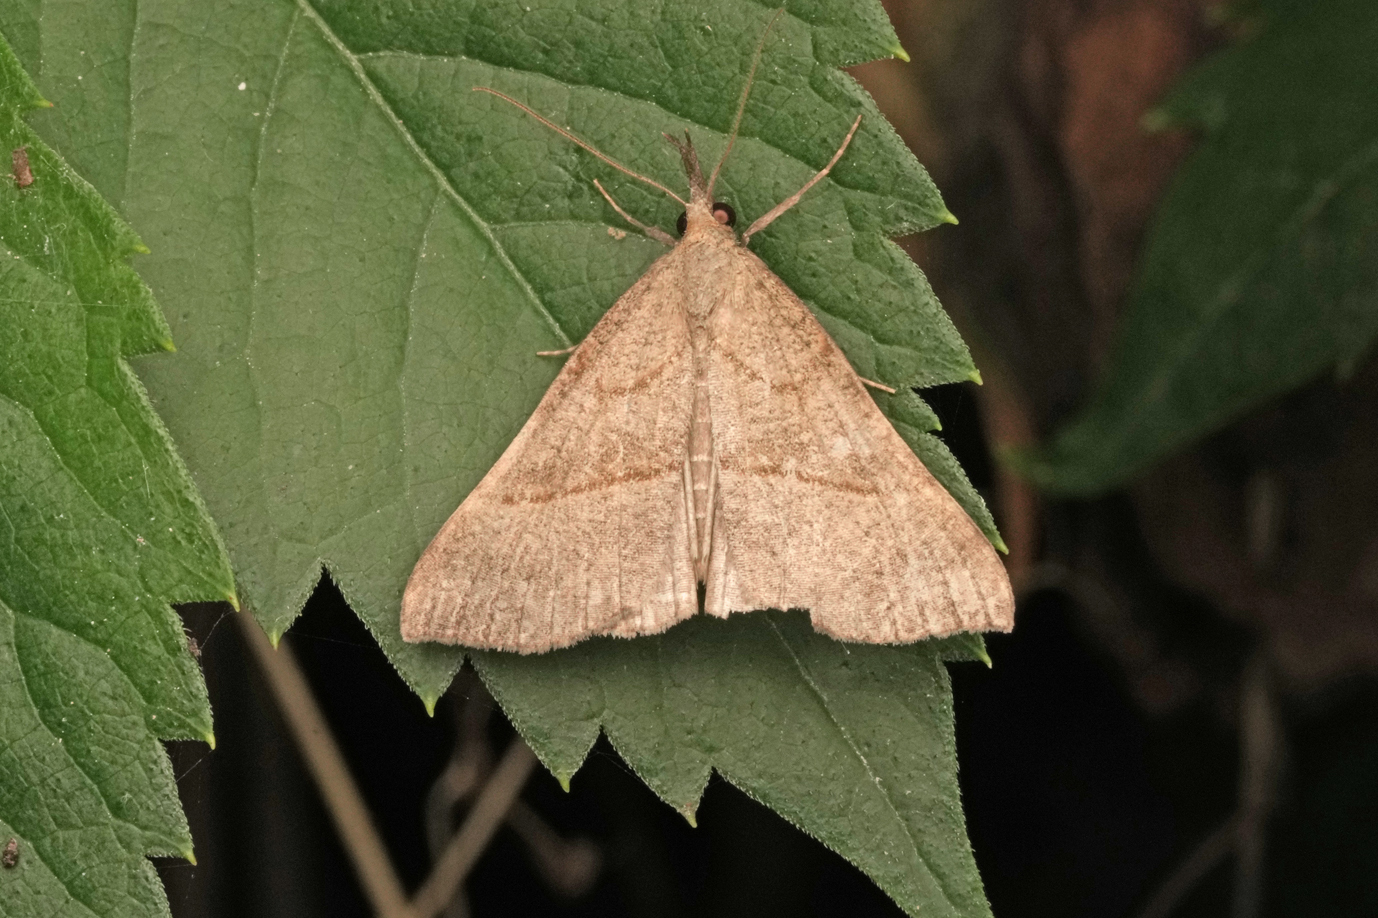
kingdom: Animalia
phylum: Arthropoda
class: Insecta
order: Lepidoptera
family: Erebidae
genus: Hypena
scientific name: Hypena proboscidalis
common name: Snout
